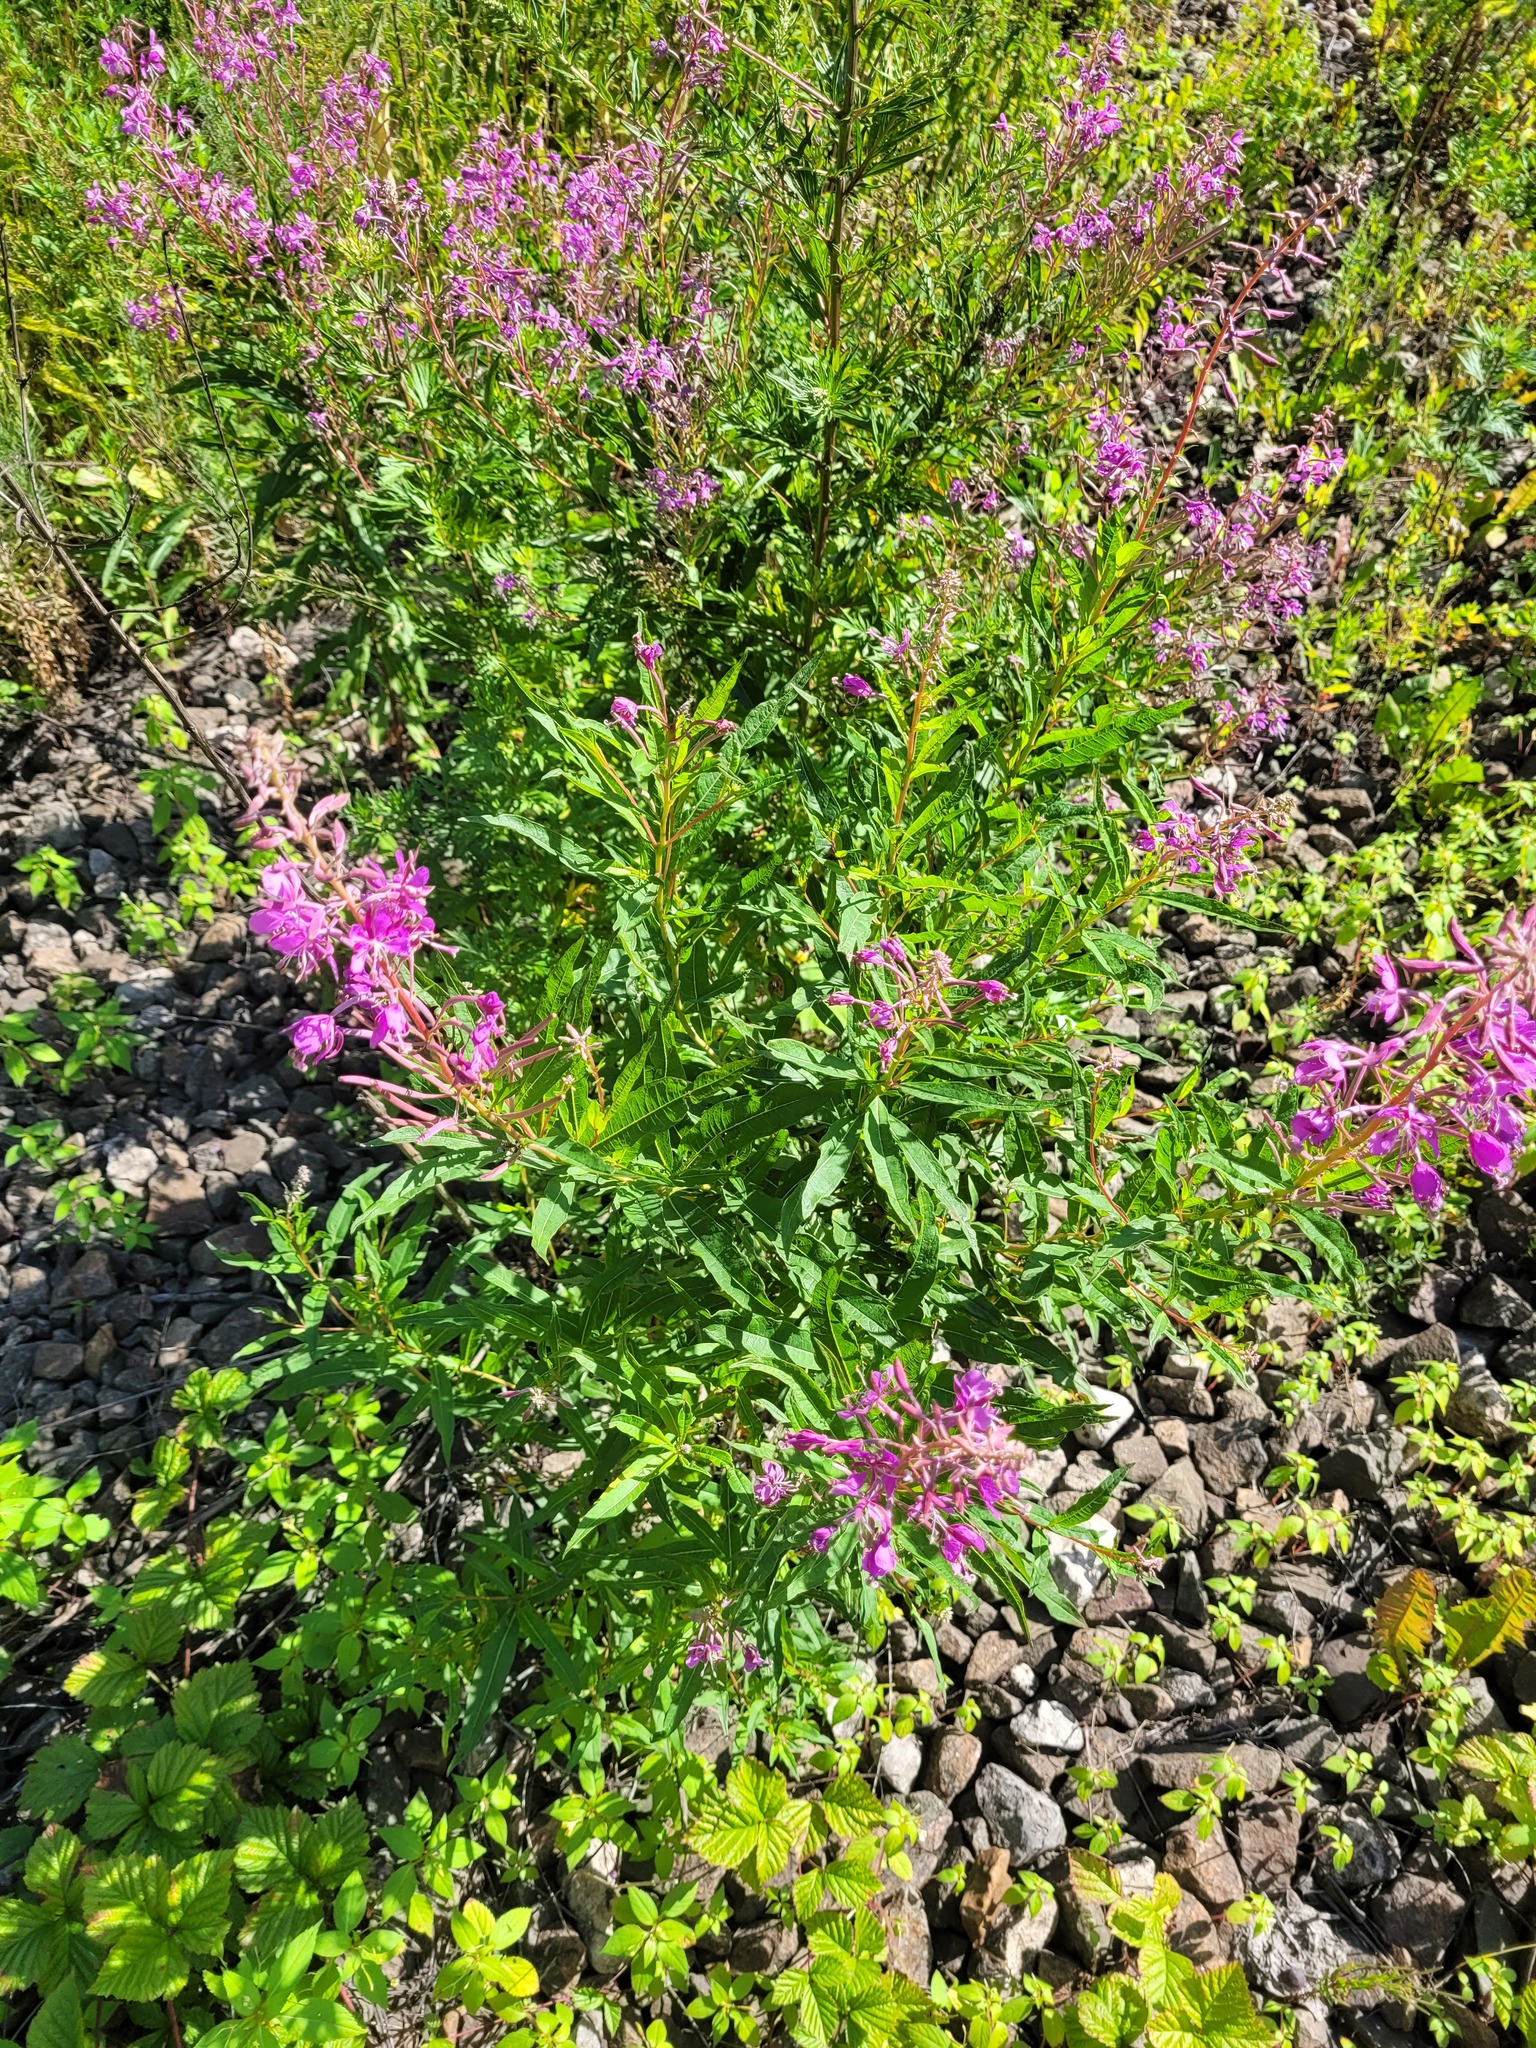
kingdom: Plantae
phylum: Tracheophyta
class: Magnoliopsida
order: Myrtales
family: Onagraceae
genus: Chamaenerion
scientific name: Chamaenerion angustifolium
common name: Fireweed
